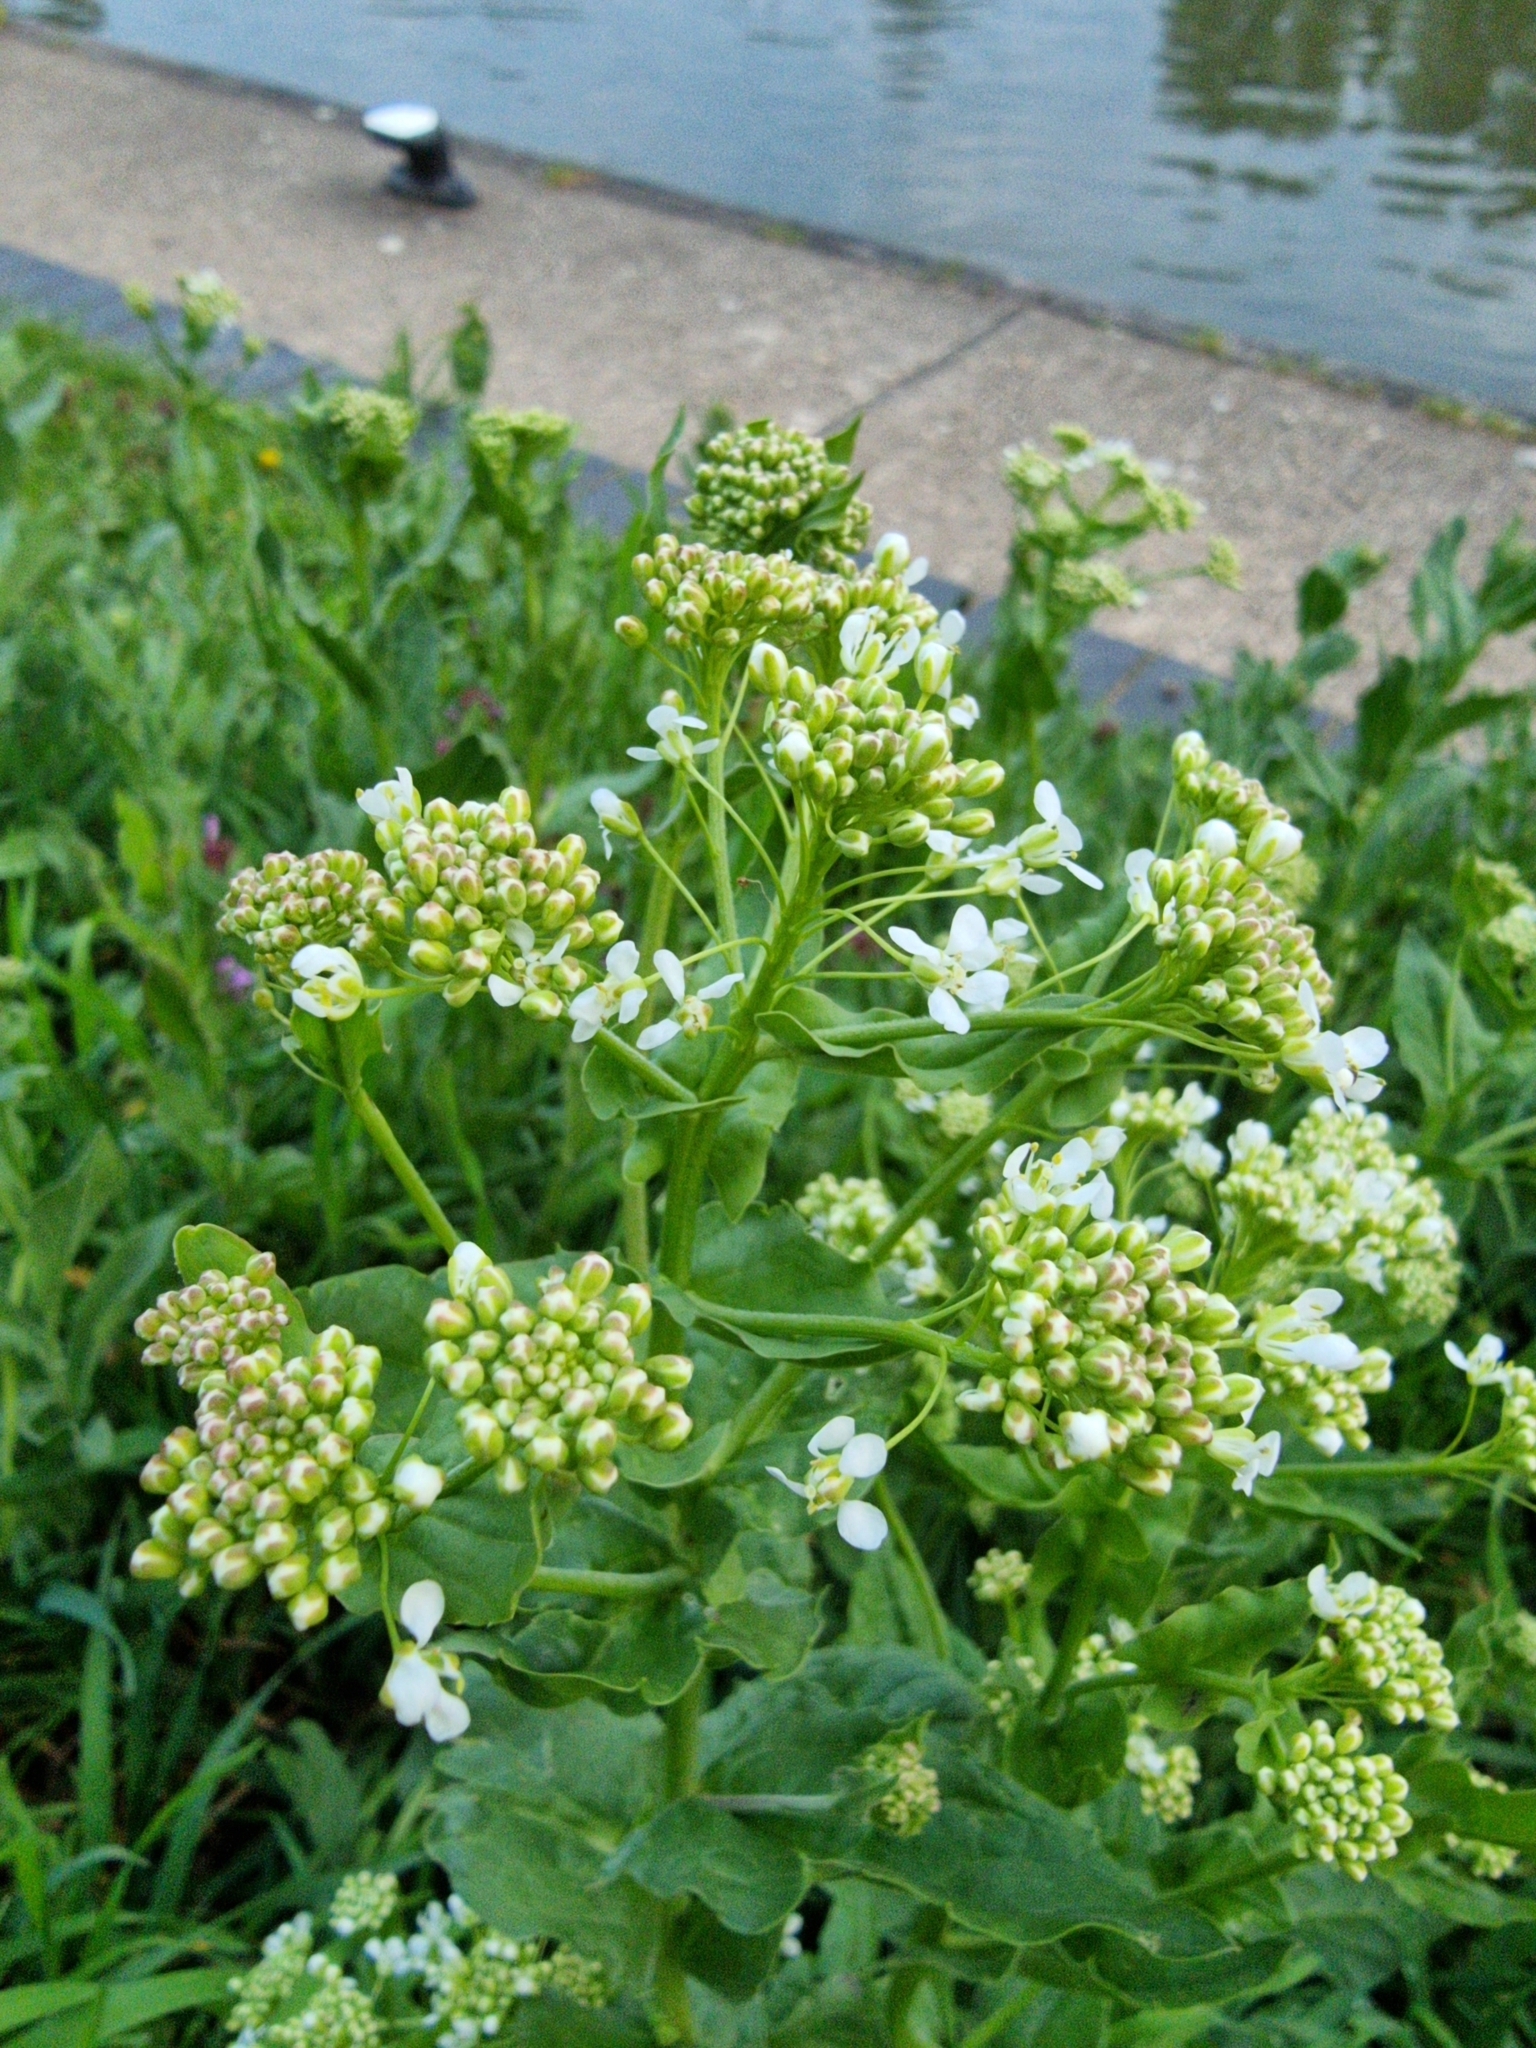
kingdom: Plantae
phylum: Tracheophyta
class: Magnoliopsida
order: Brassicales
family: Brassicaceae
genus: Lepidium
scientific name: Lepidium draba
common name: Hoary cress
